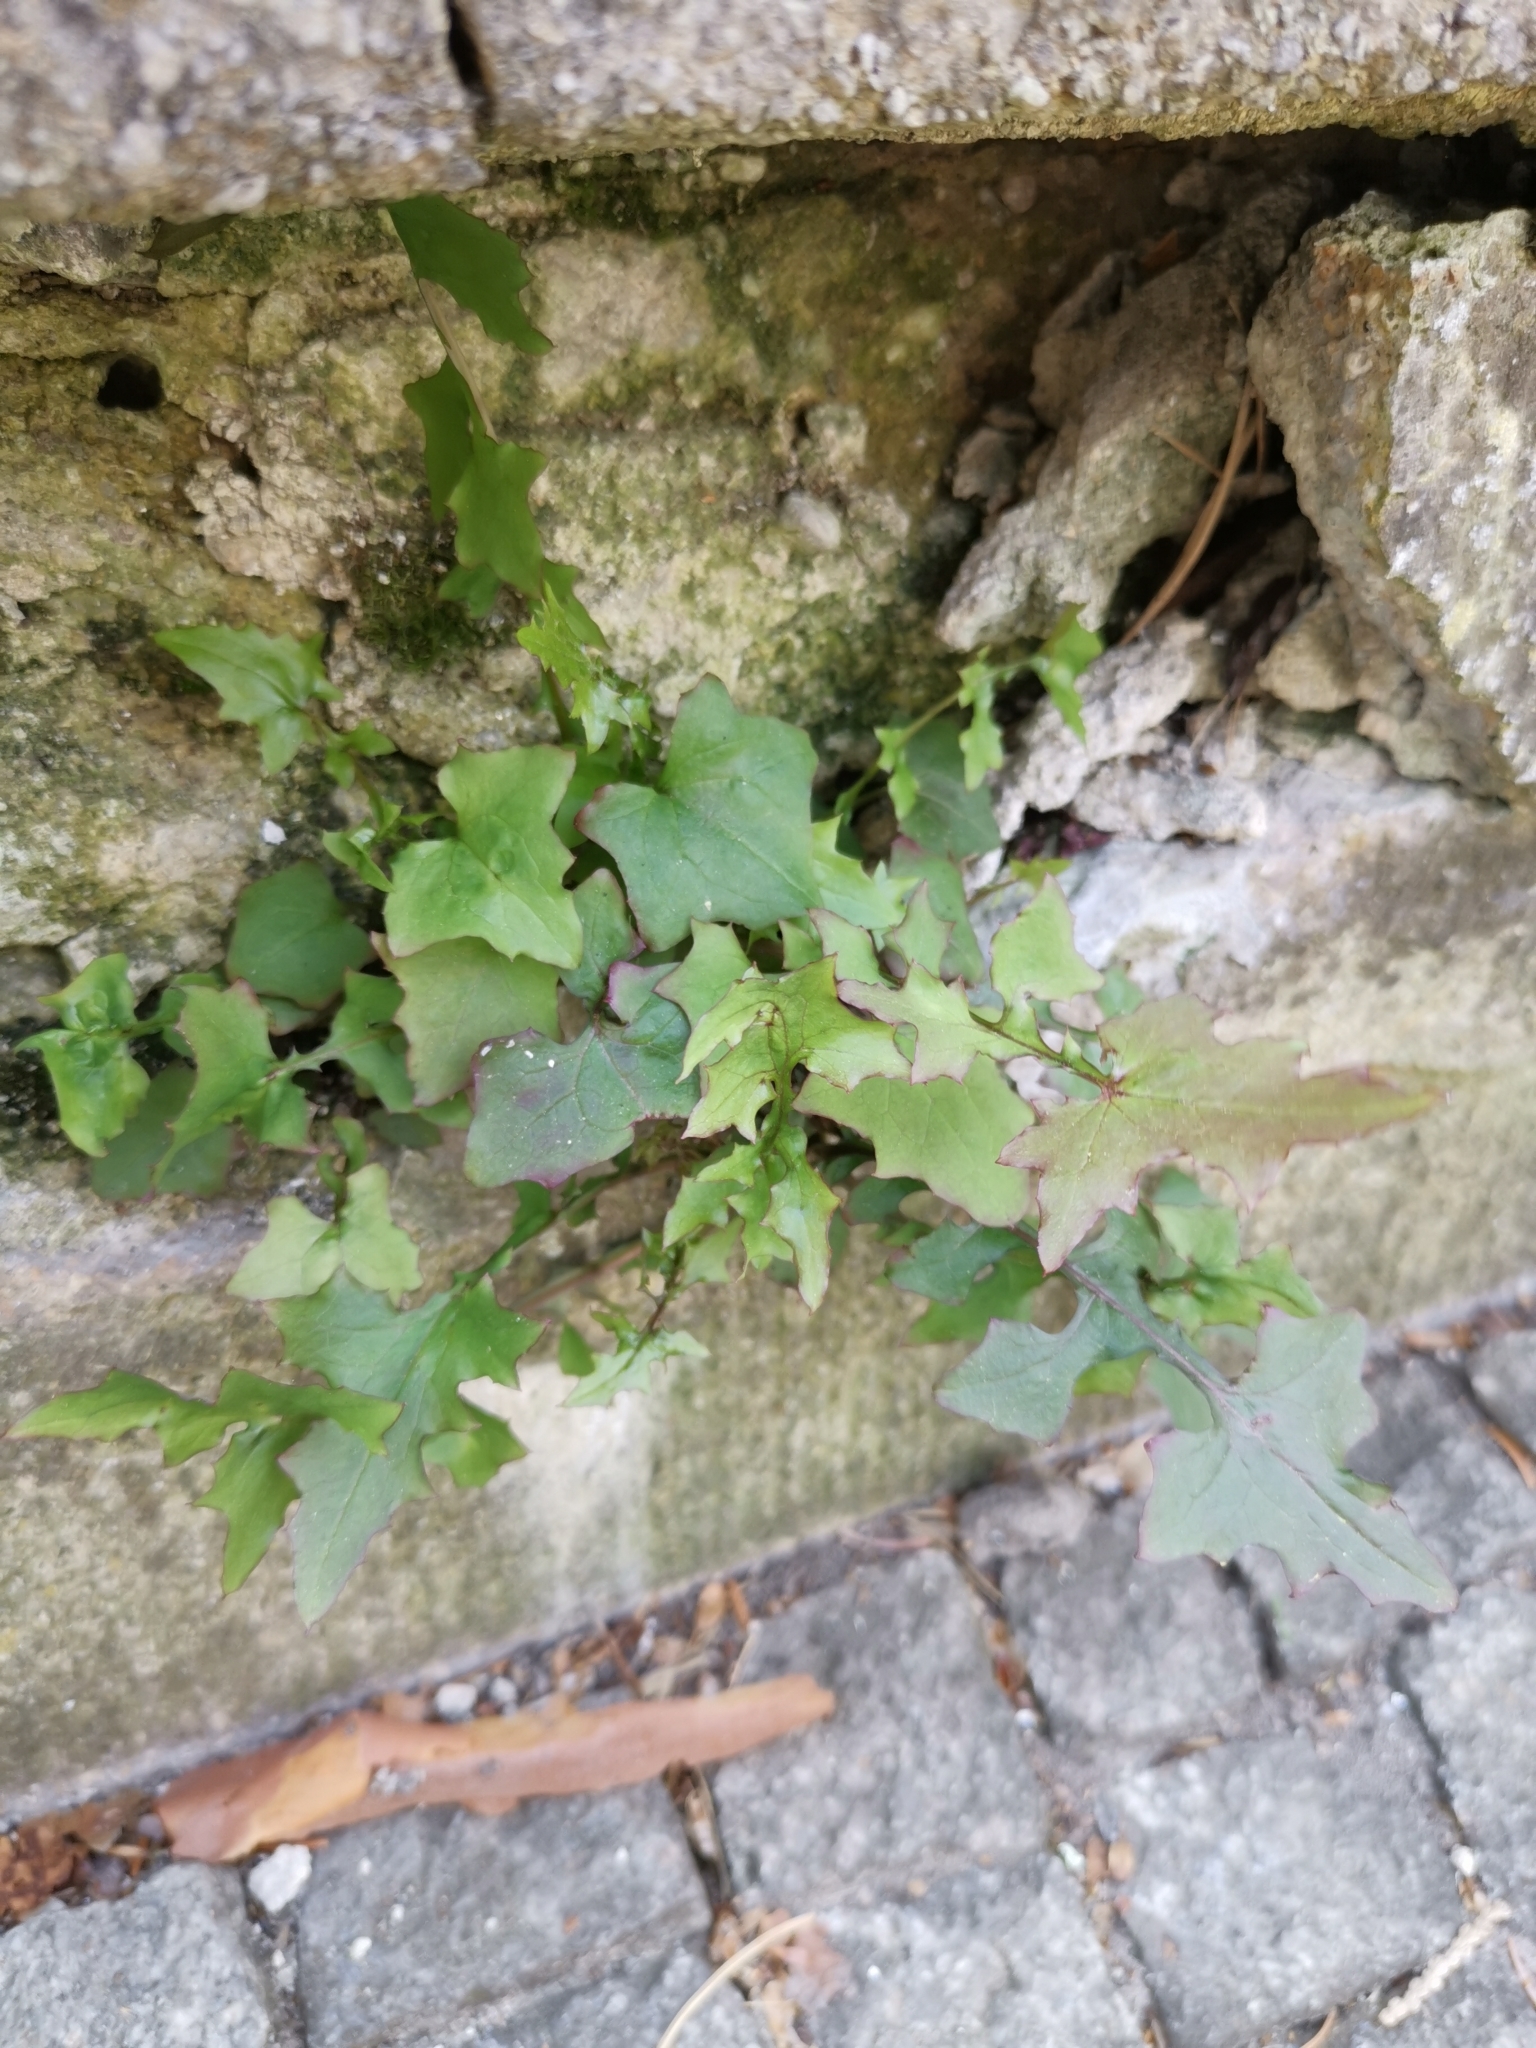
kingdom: Plantae
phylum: Tracheophyta
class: Magnoliopsida
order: Asterales
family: Asteraceae
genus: Mycelis
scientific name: Mycelis muralis
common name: Wall lettuce
